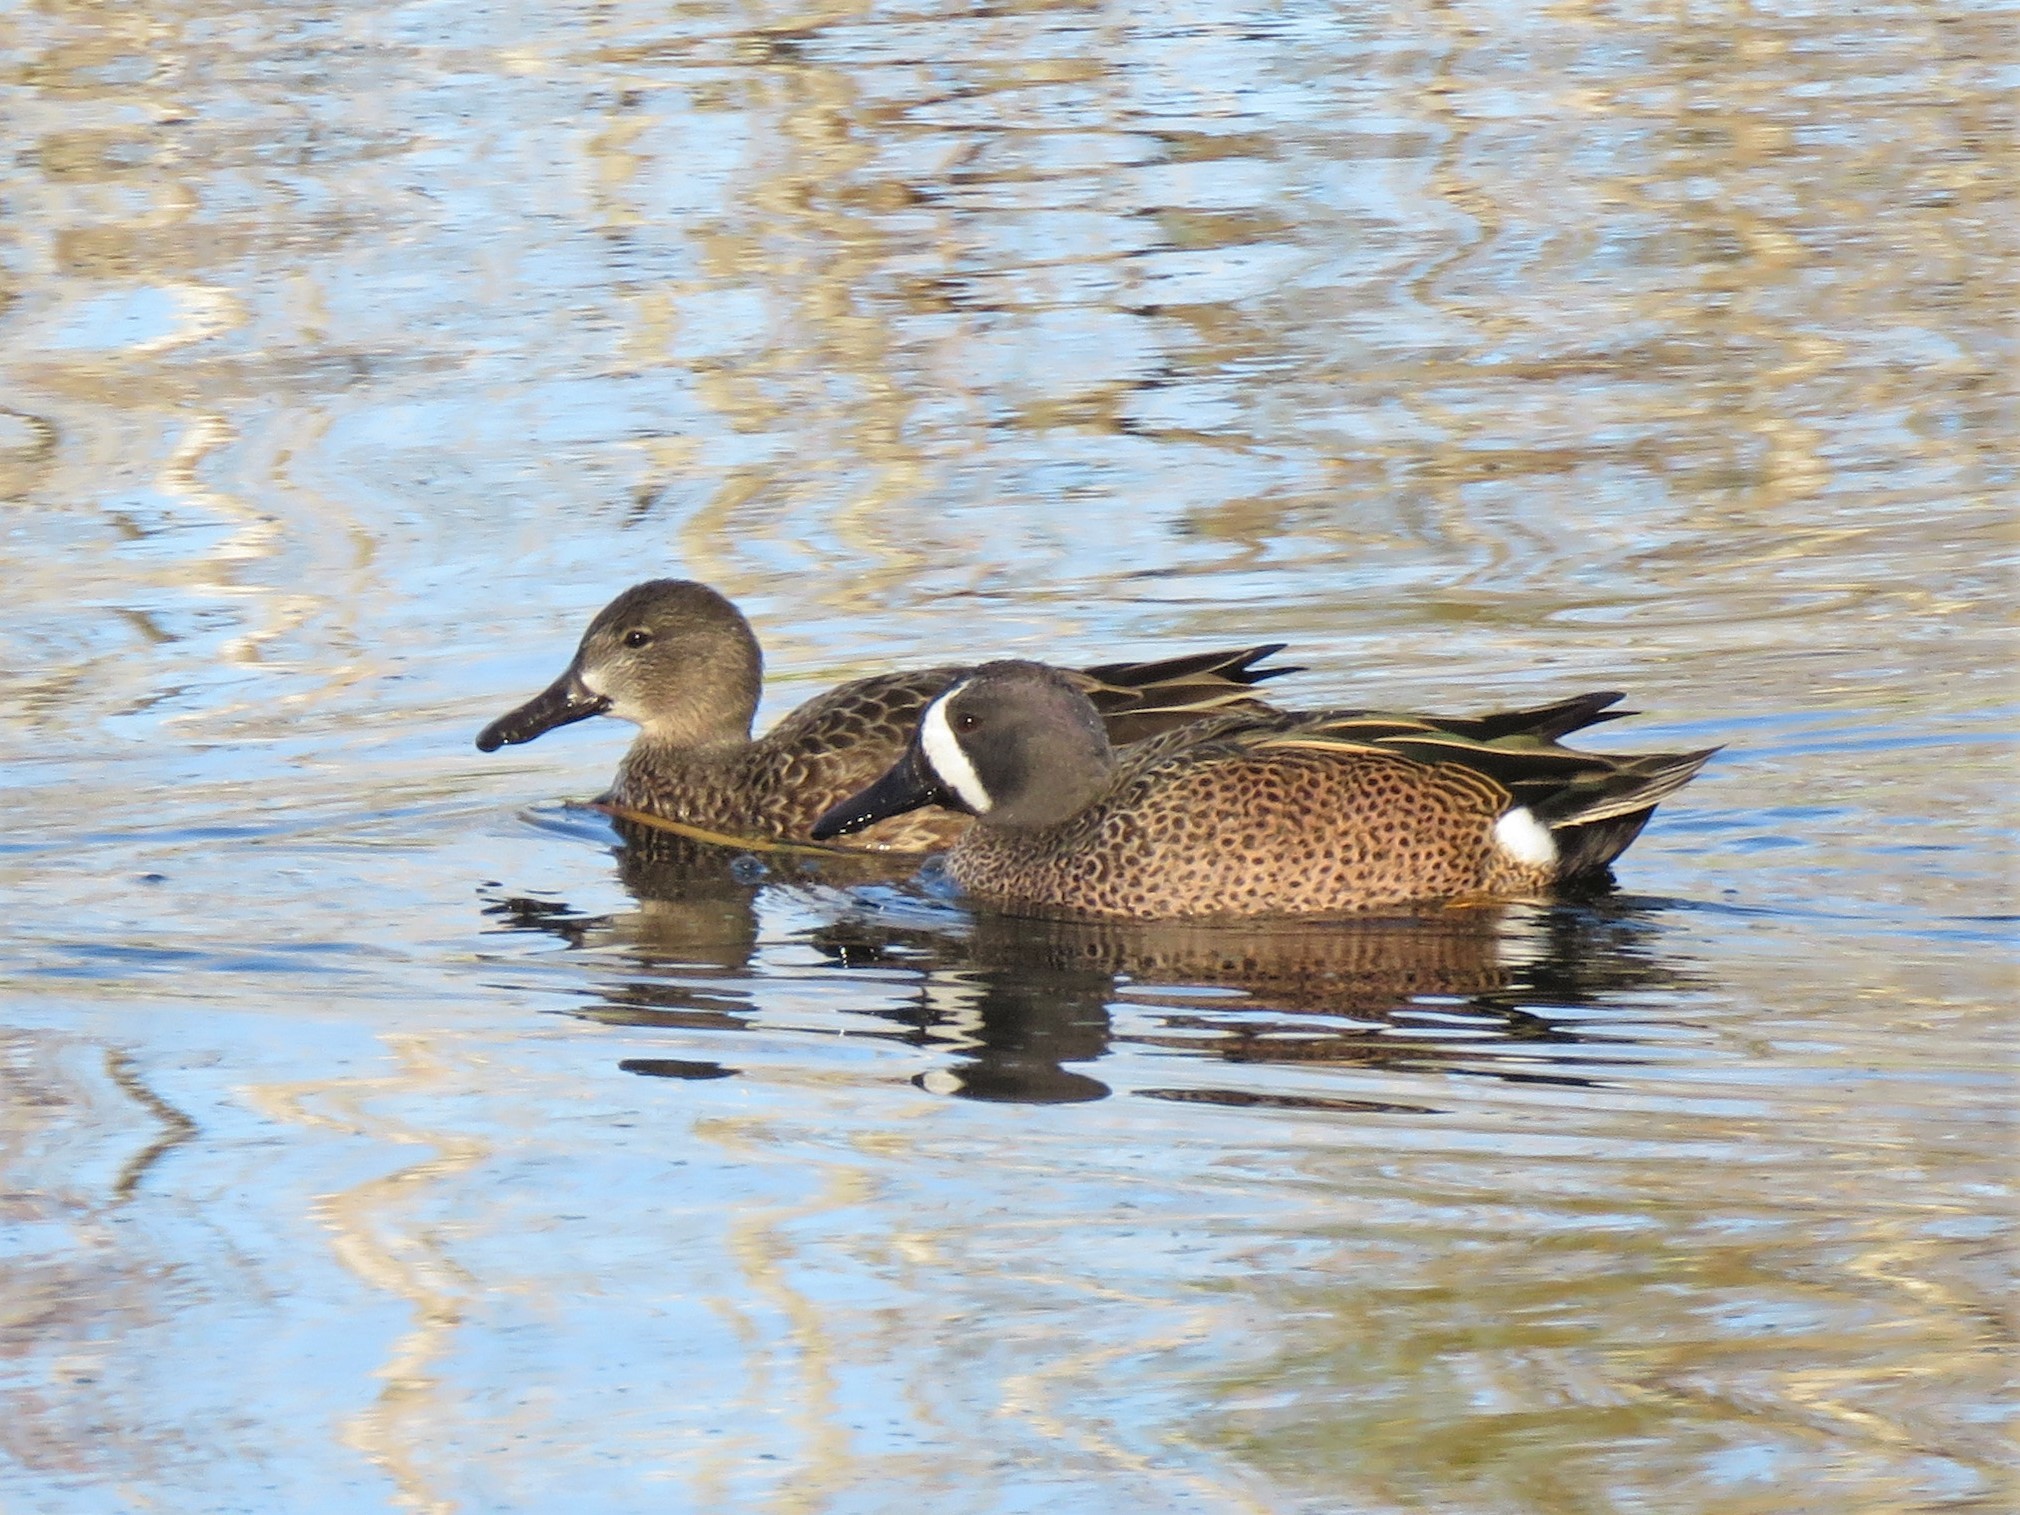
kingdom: Animalia
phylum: Chordata
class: Aves
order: Anseriformes
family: Anatidae
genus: Spatula
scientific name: Spatula discors
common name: Blue-winged teal
